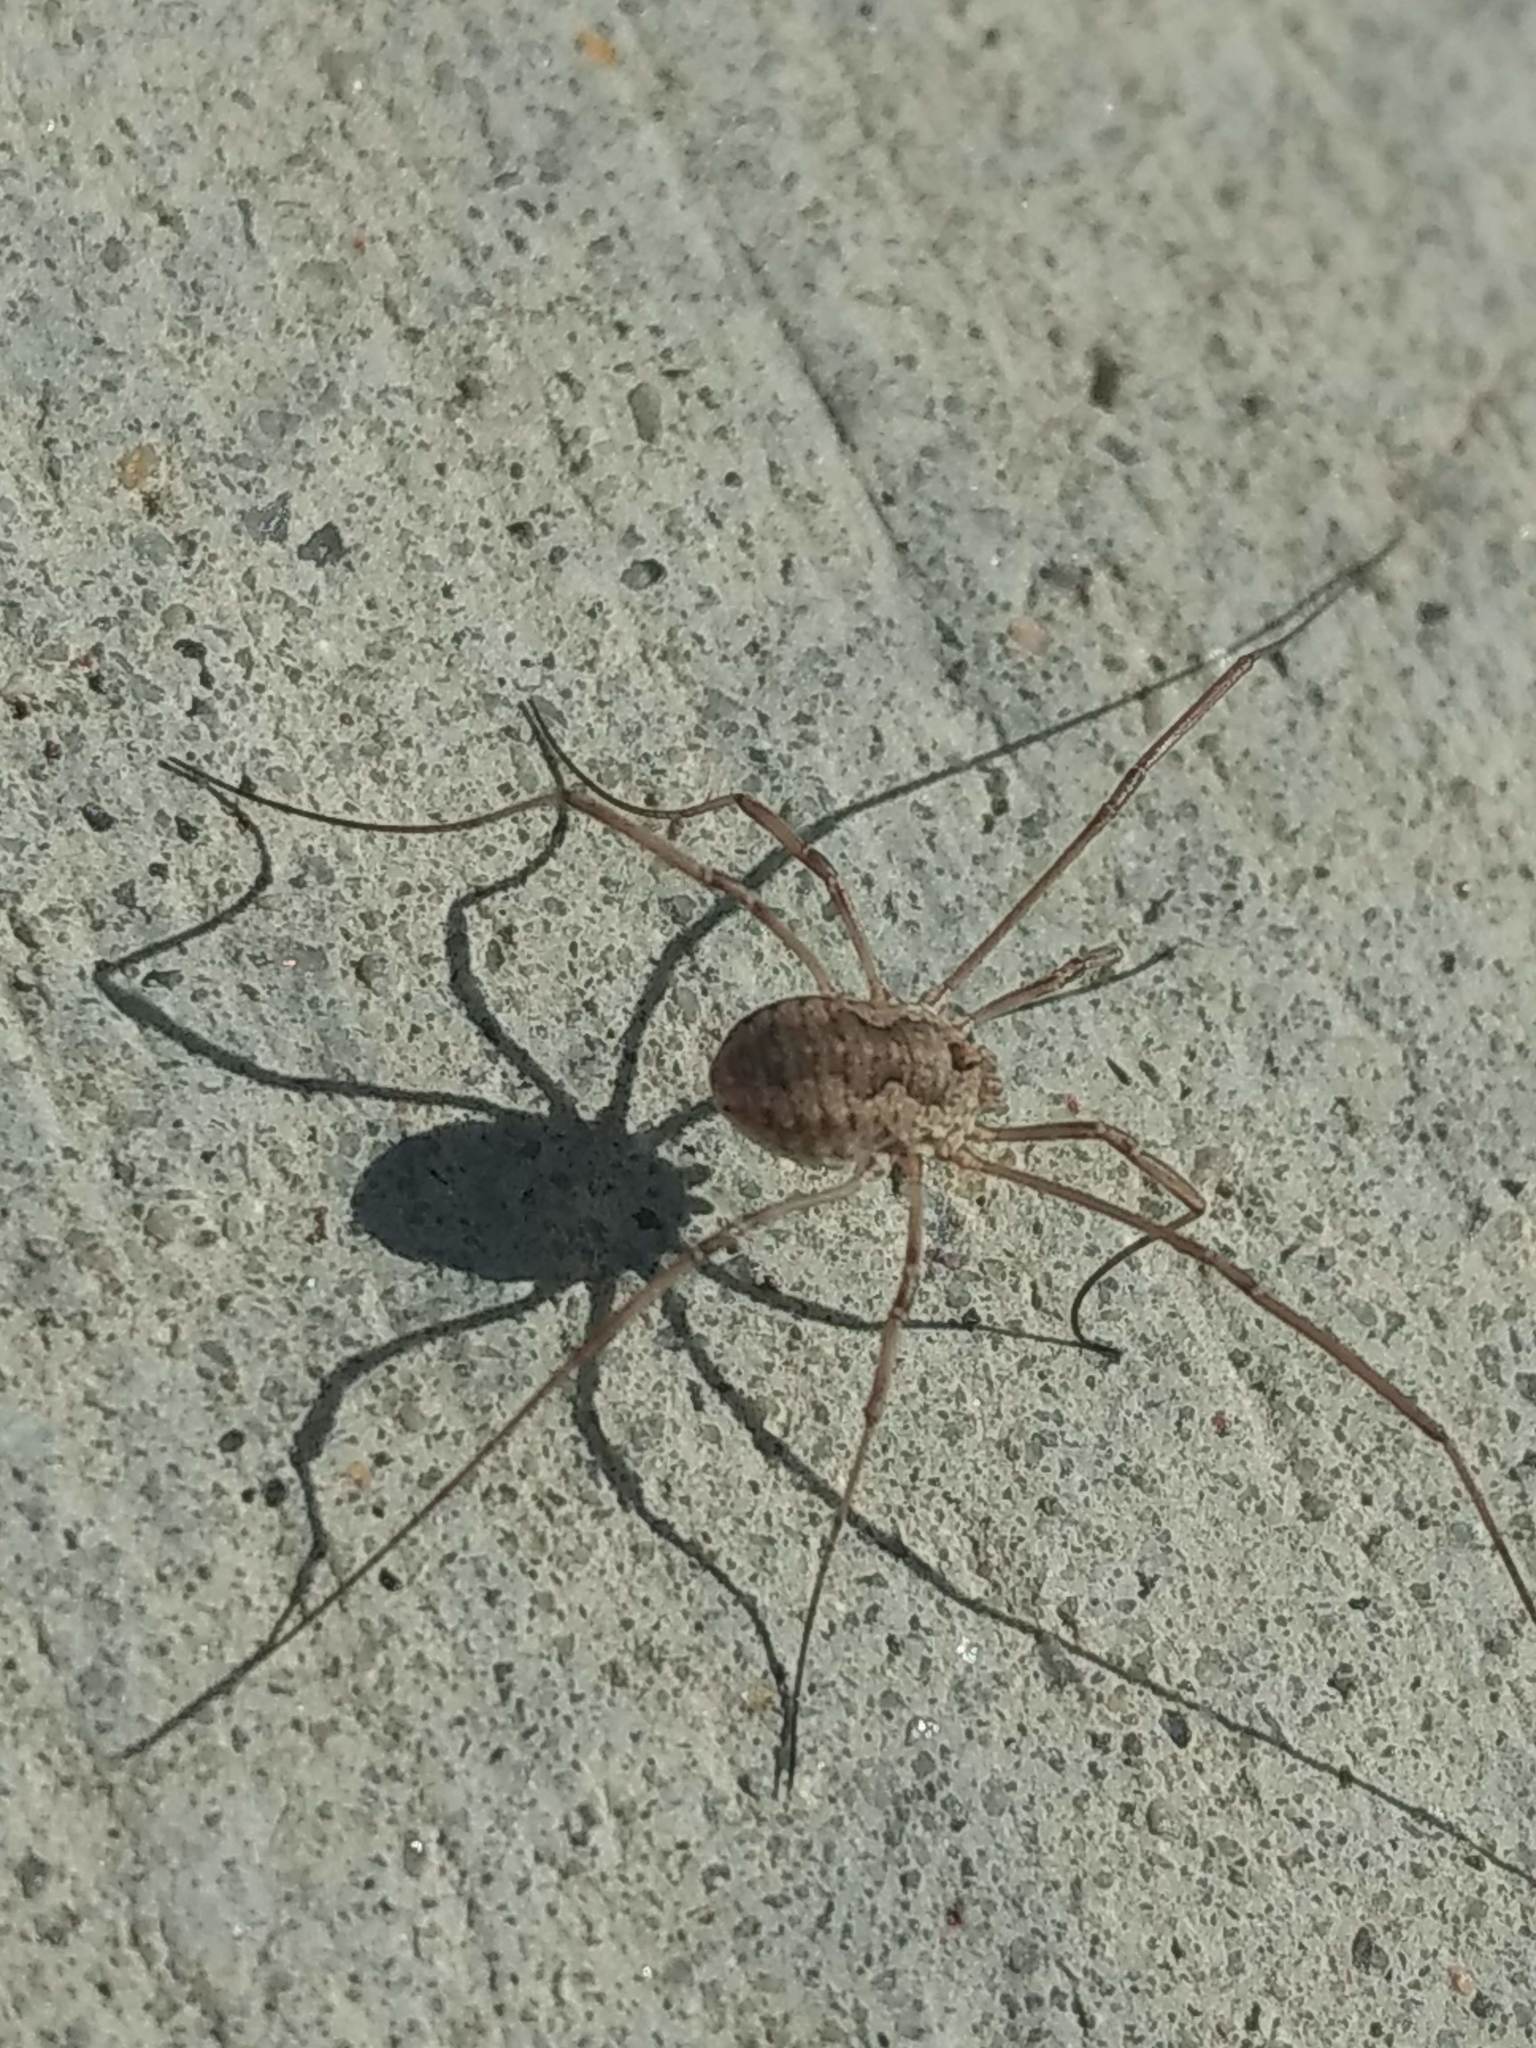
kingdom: Animalia
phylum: Arthropoda
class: Arachnida
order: Opiliones
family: Phalangiidae
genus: Phalangium
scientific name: Phalangium opilio
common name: Daddy longleg
